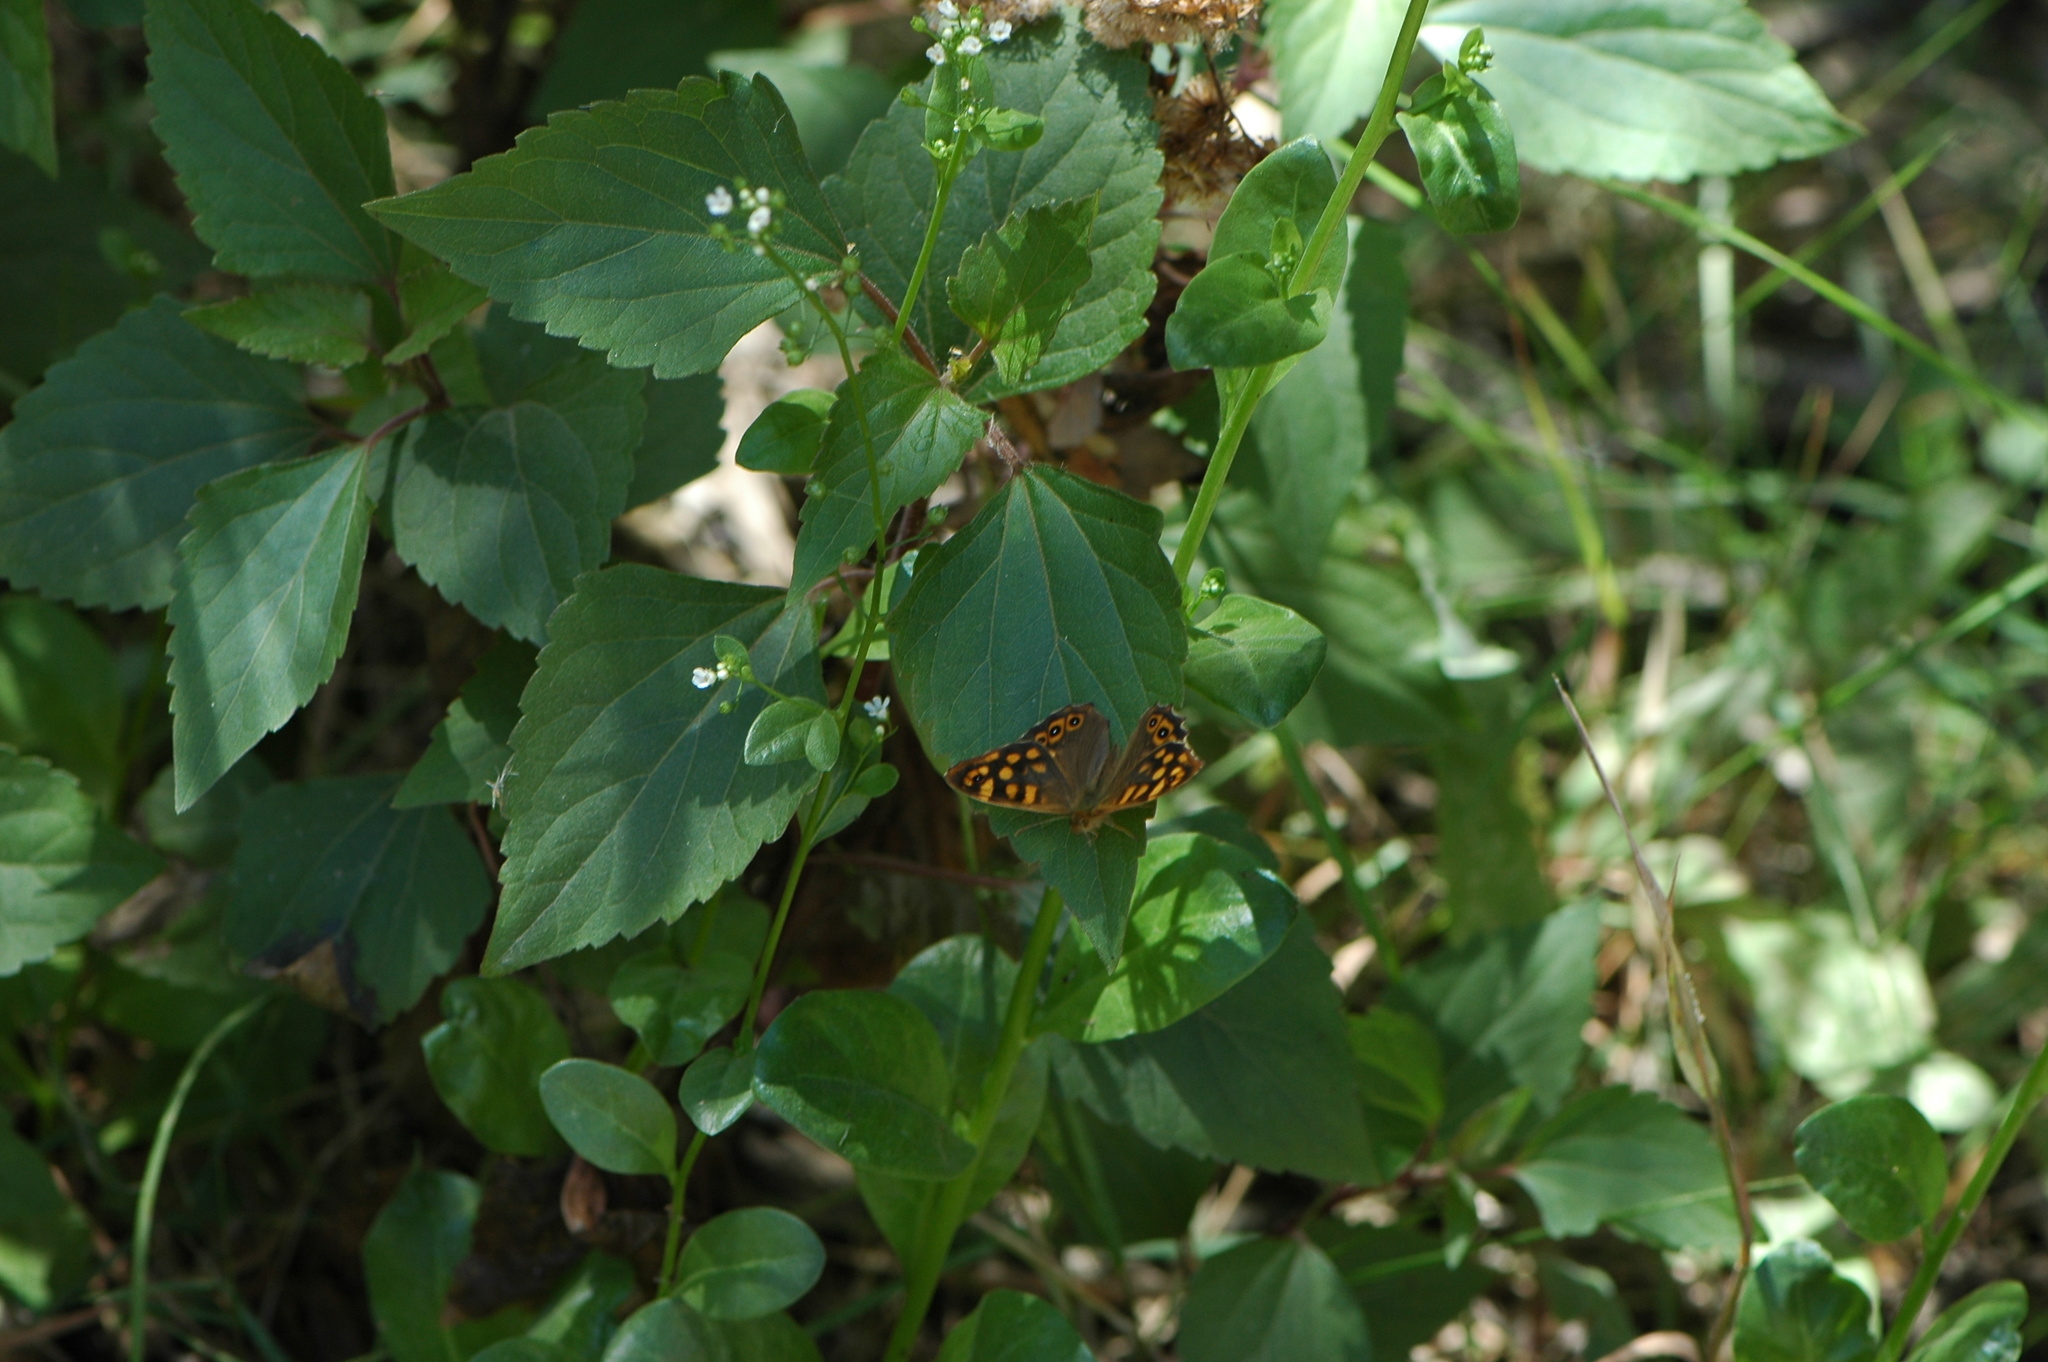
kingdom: Animalia
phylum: Arthropoda
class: Insecta
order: Lepidoptera
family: Nymphalidae
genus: Pararge
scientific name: Pararge aegeria
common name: Speckled wood
